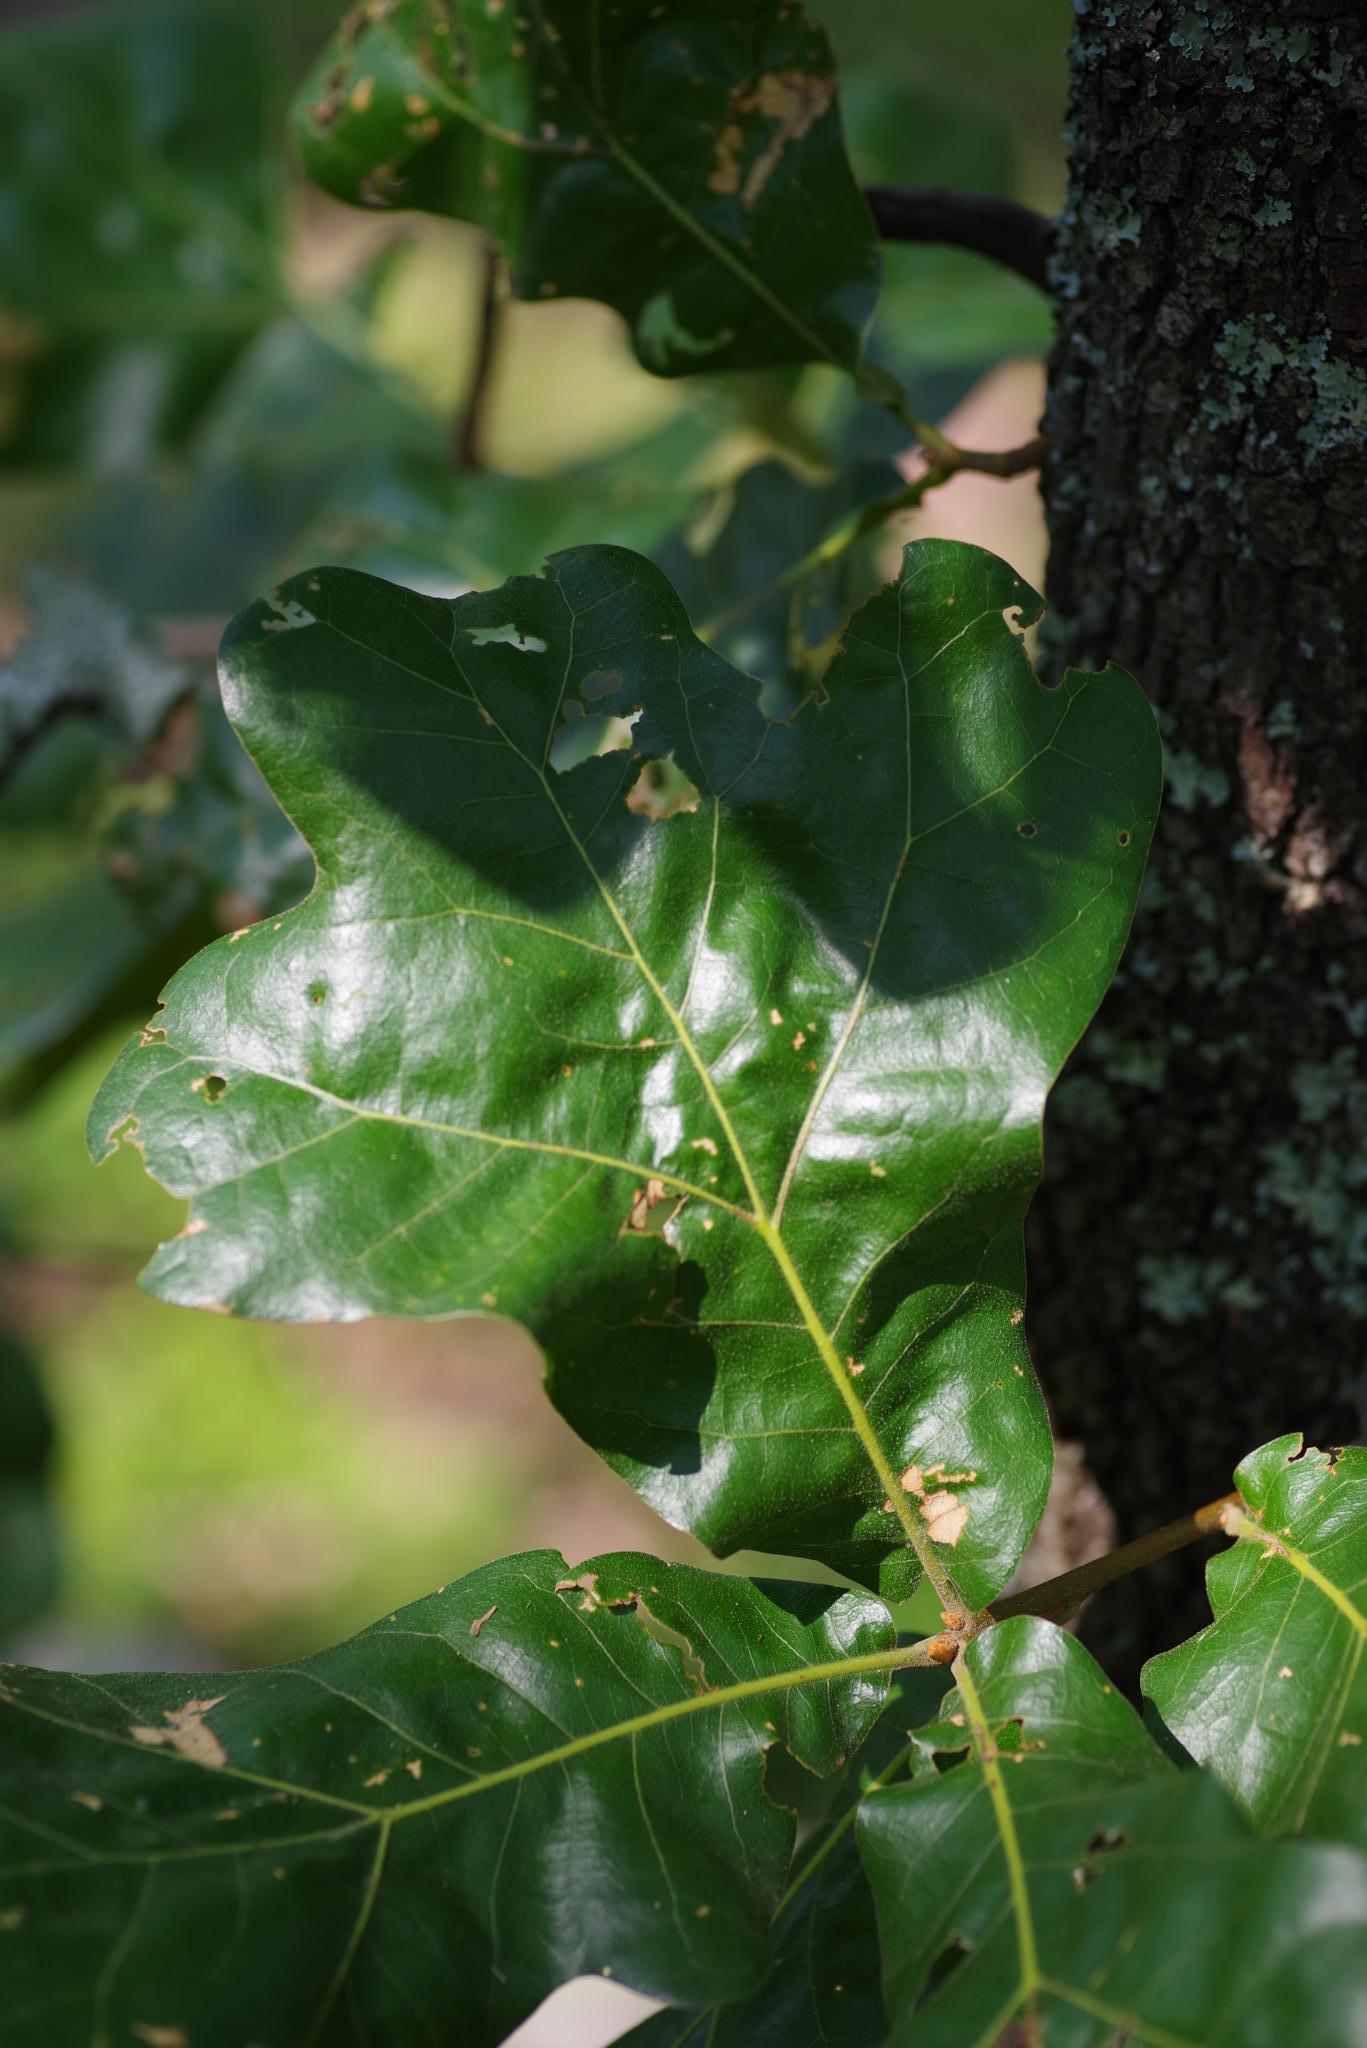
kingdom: Plantae
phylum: Tracheophyta
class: Magnoliopsida
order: Fagales
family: Fagaceae
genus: Quercus
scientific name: Quercus marilandica
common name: Blackjack oak
